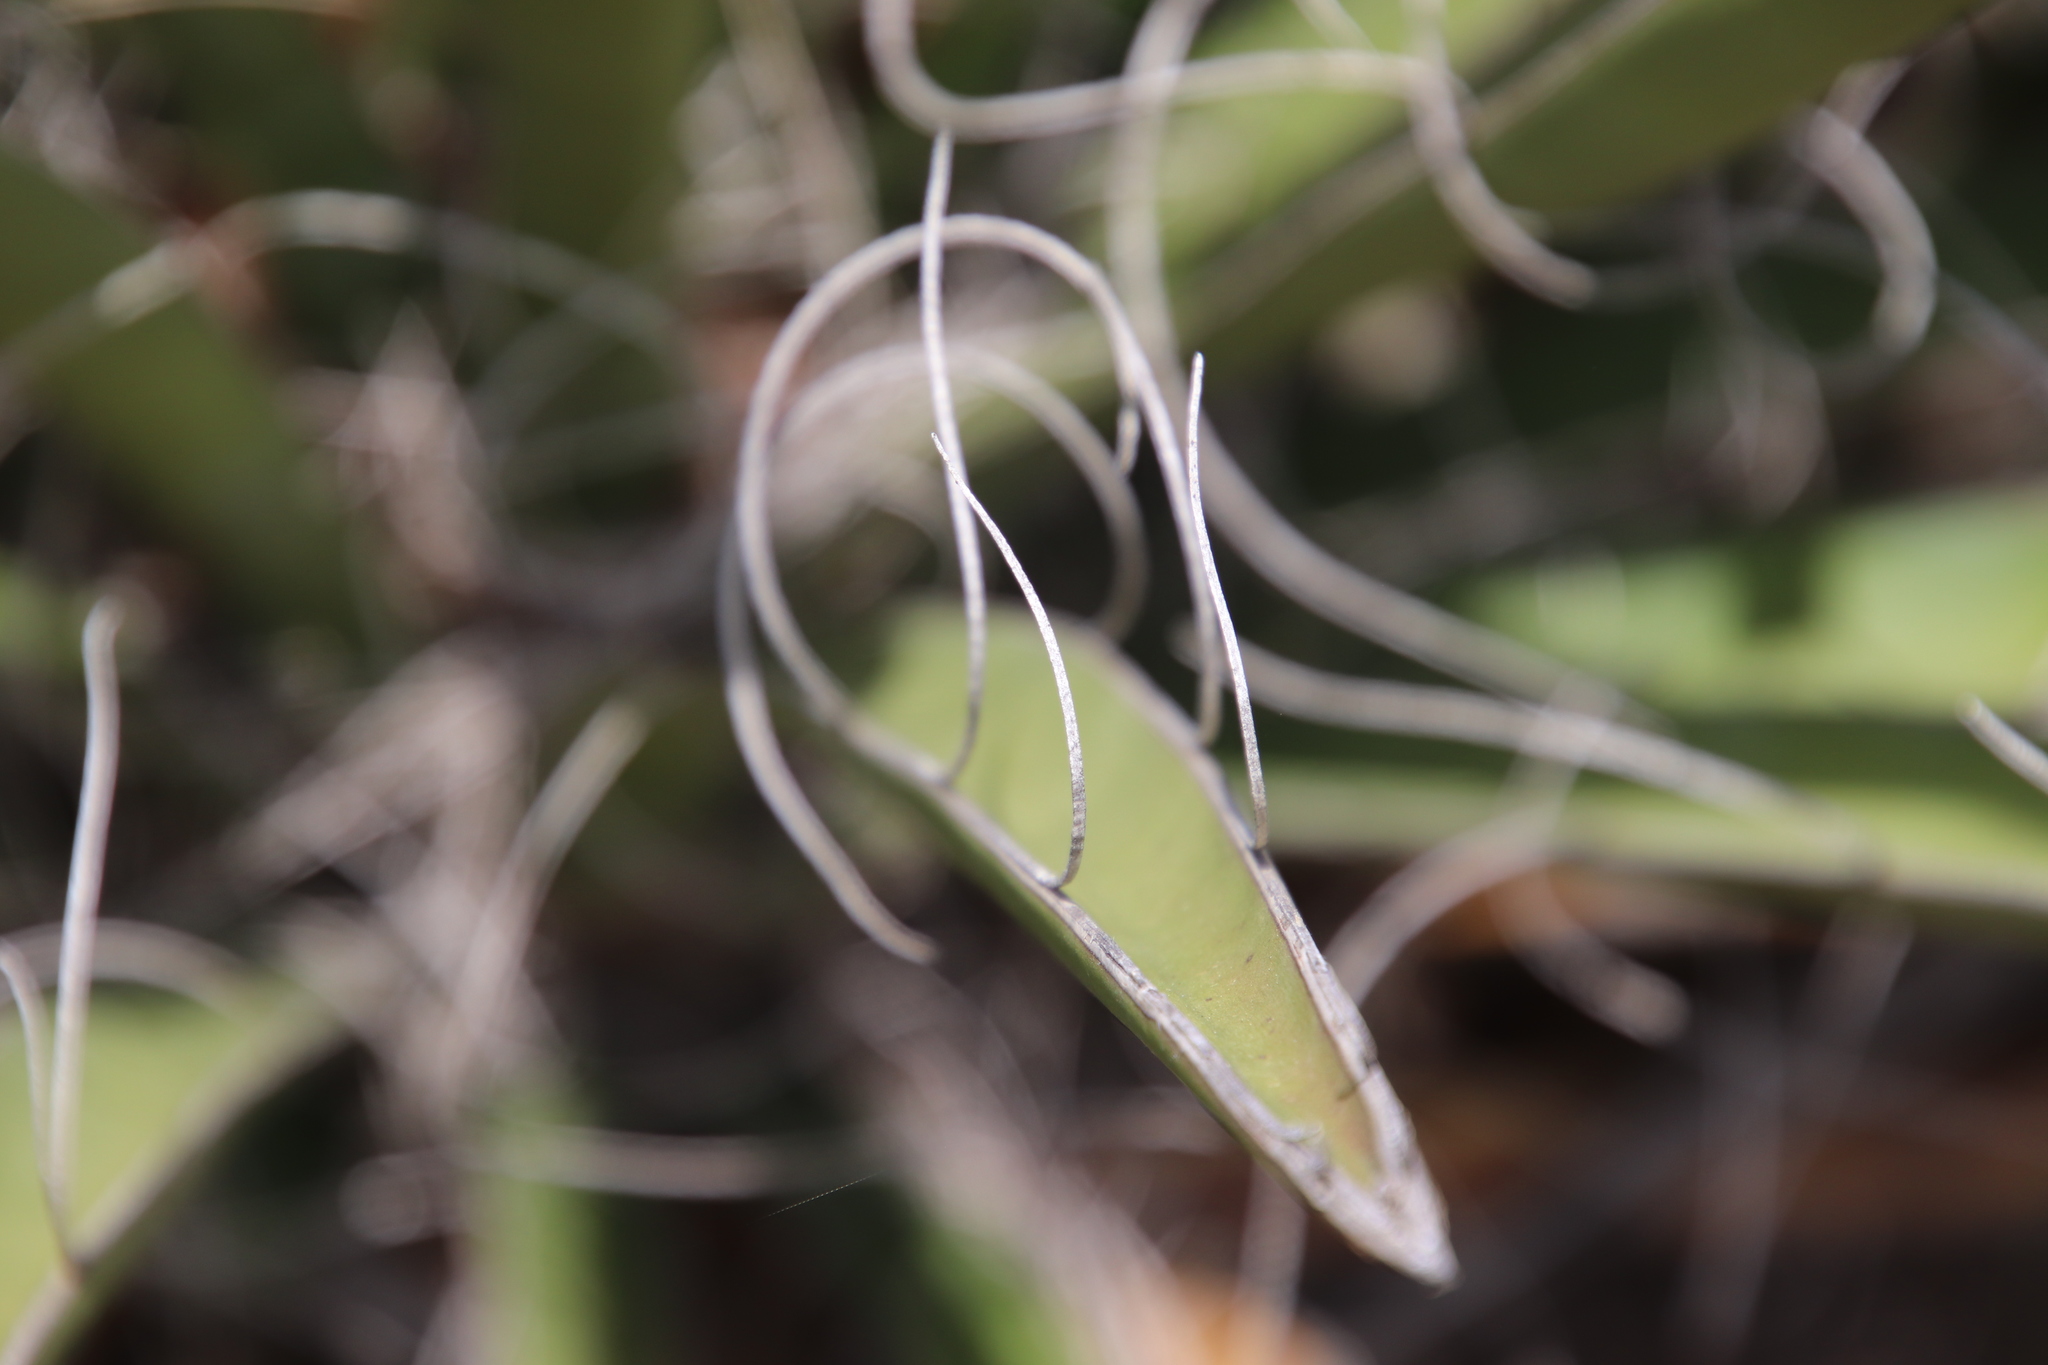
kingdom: Plantae
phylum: Tracheophyta
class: Liliopsida
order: Asparagales
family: Asparagaceae
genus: Yucca
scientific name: Yucca schidigera
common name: Mojave yucca
